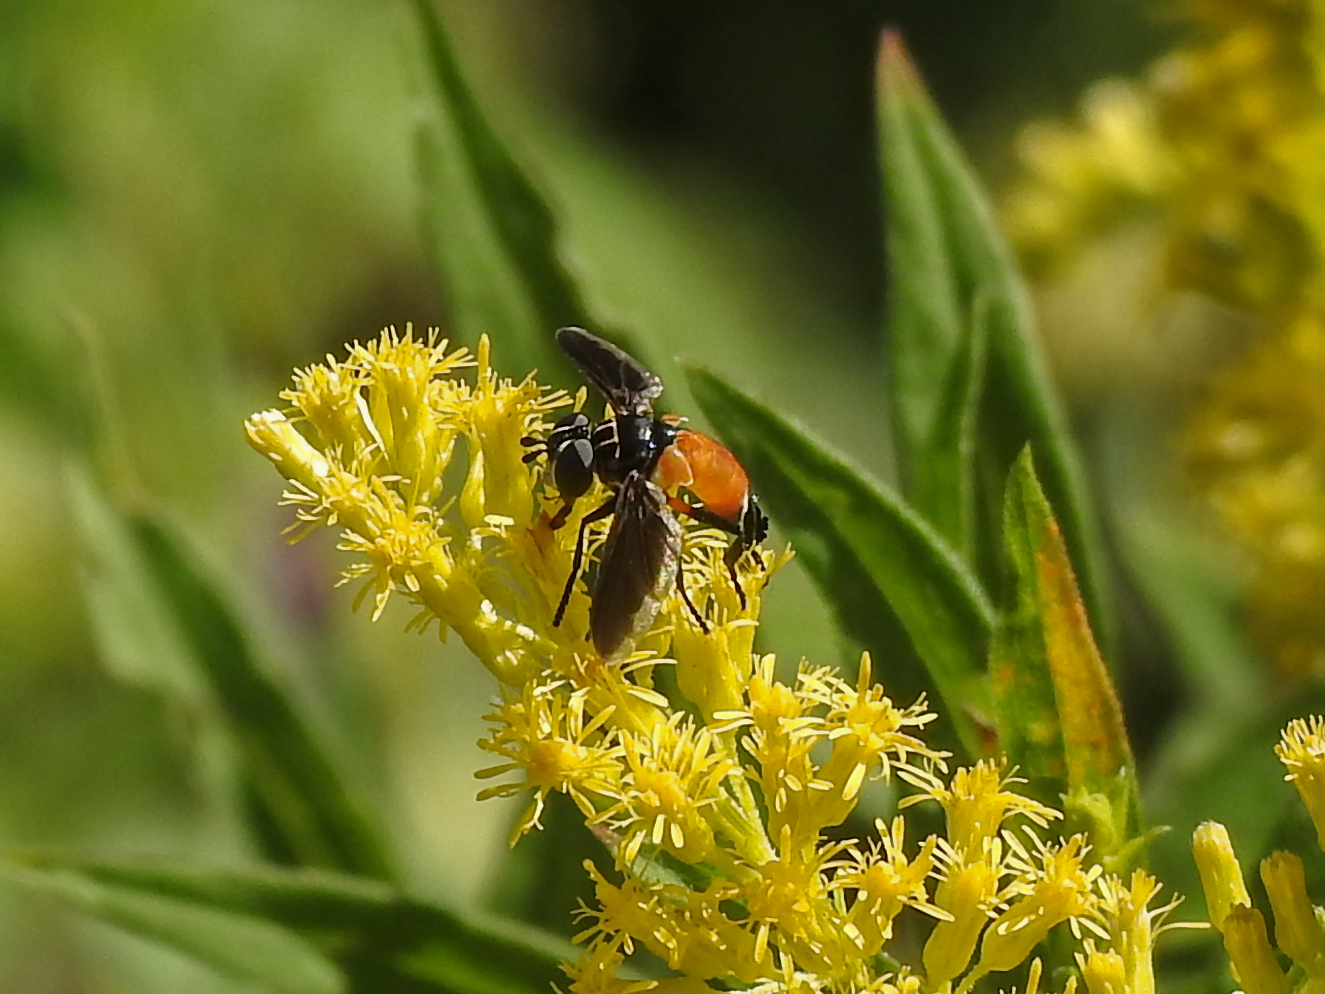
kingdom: Animalia
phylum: Arthropoda
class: Insecta
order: Diptera
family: Tachinidae
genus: Trichopoda
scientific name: Trichopoda pennipes
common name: Tachinid fly
